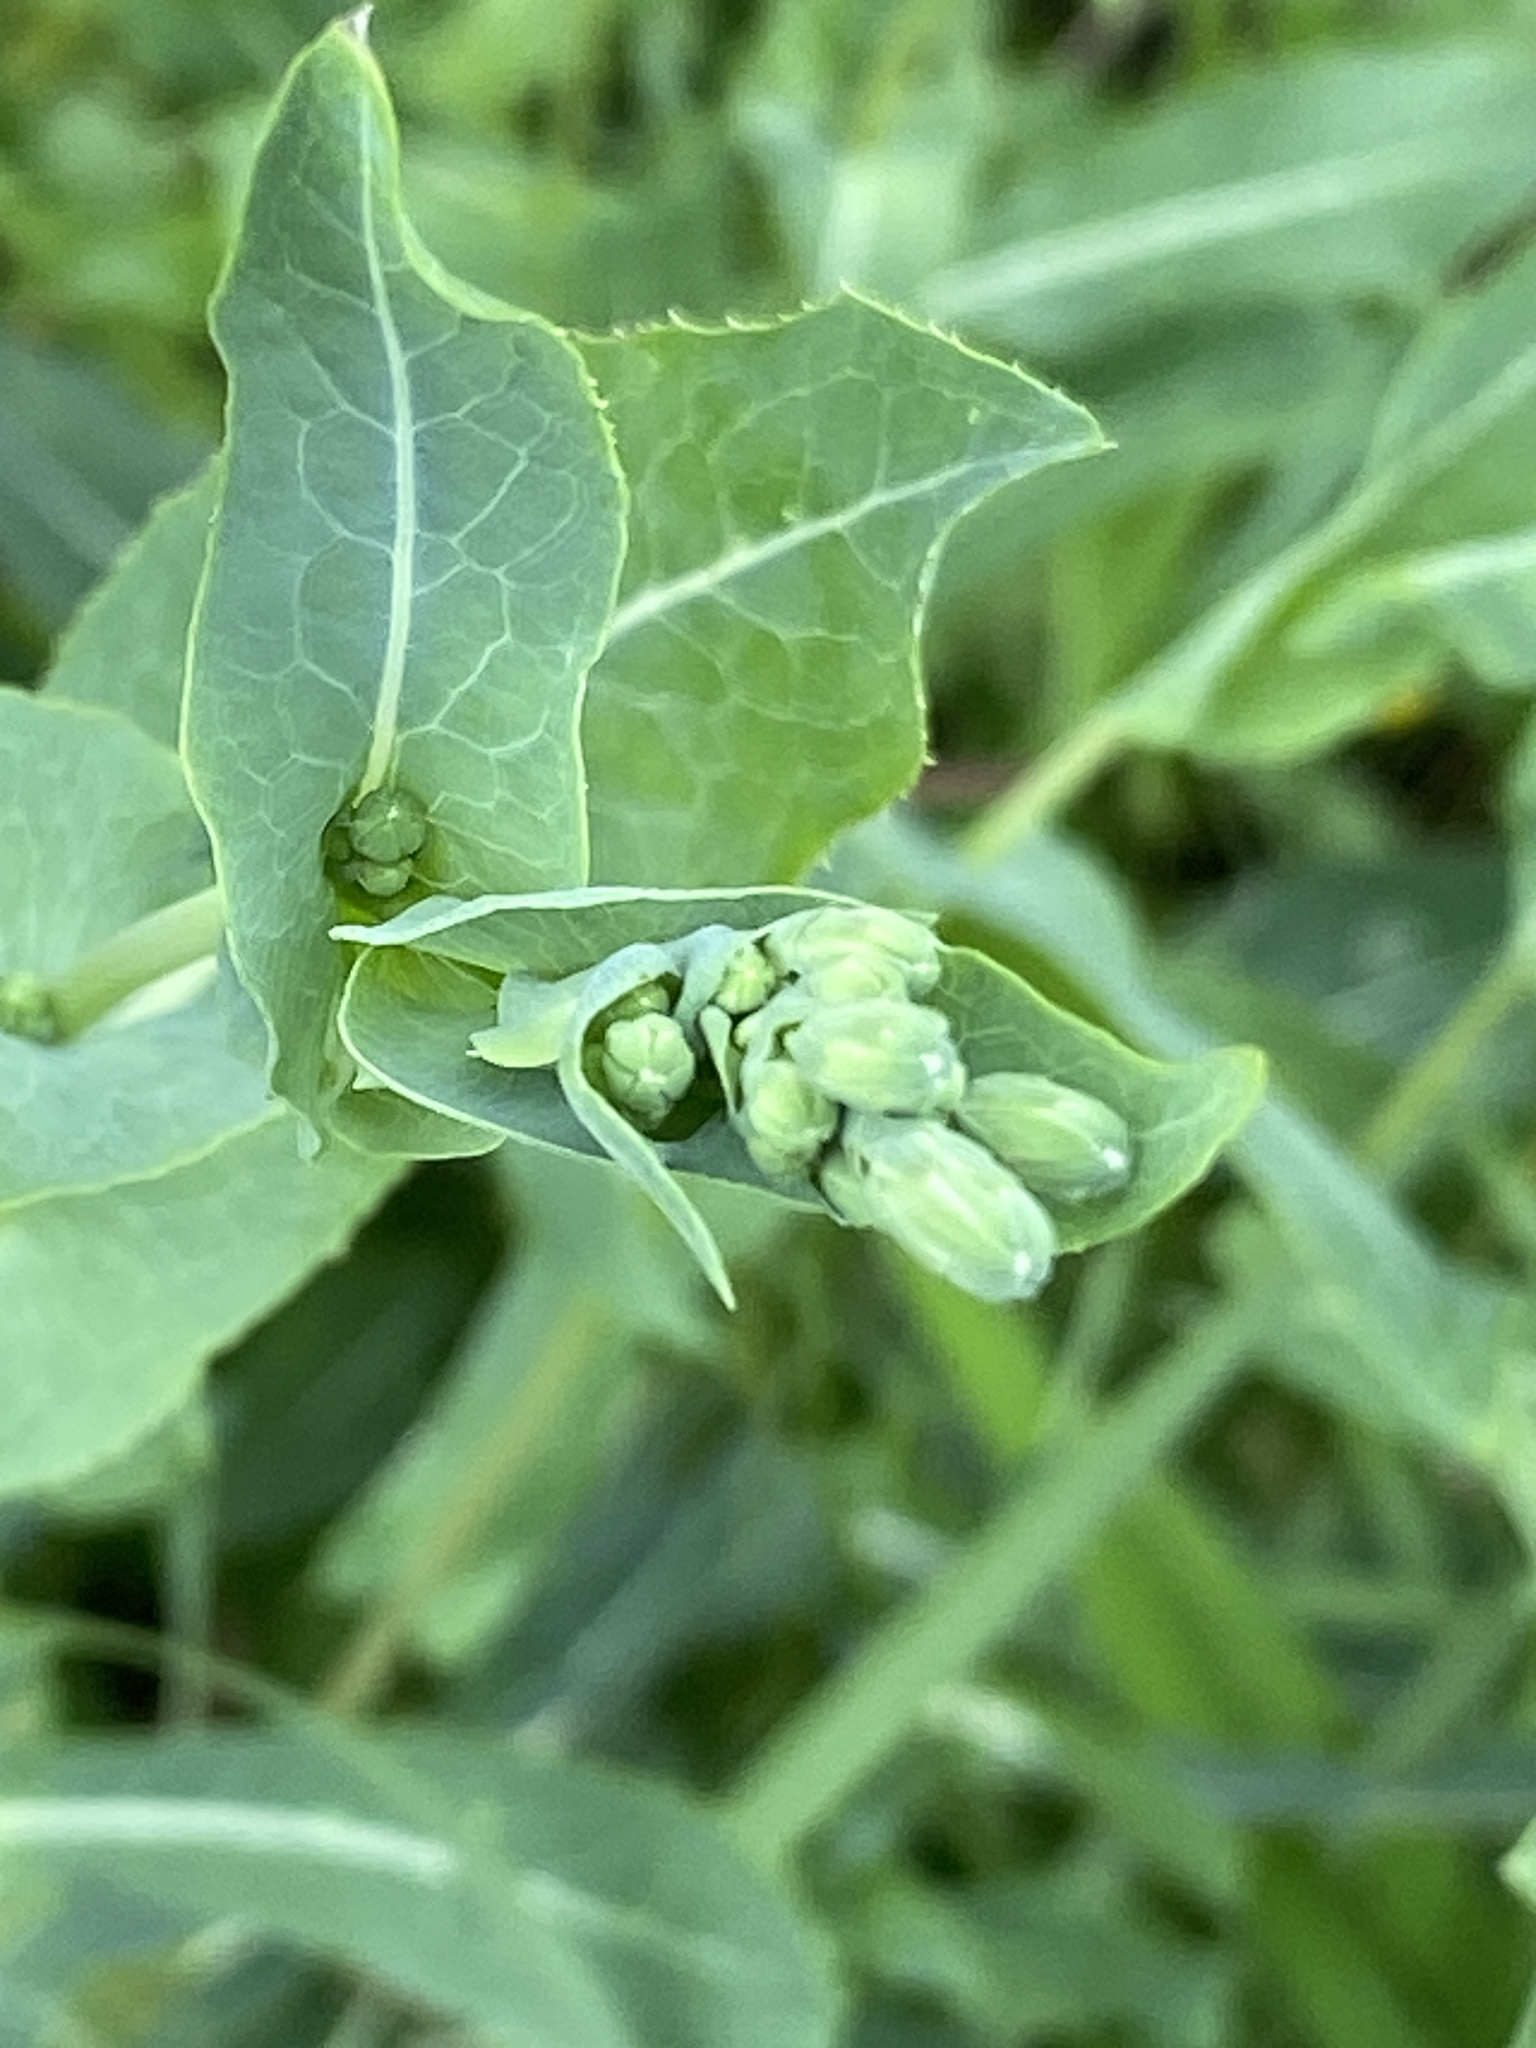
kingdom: Plantae
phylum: Tracheophyta
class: Magnoliopsida
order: Asterales
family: Asteraceae
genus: Lactuca
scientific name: Lactuca serriola
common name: Prickly lettuce
